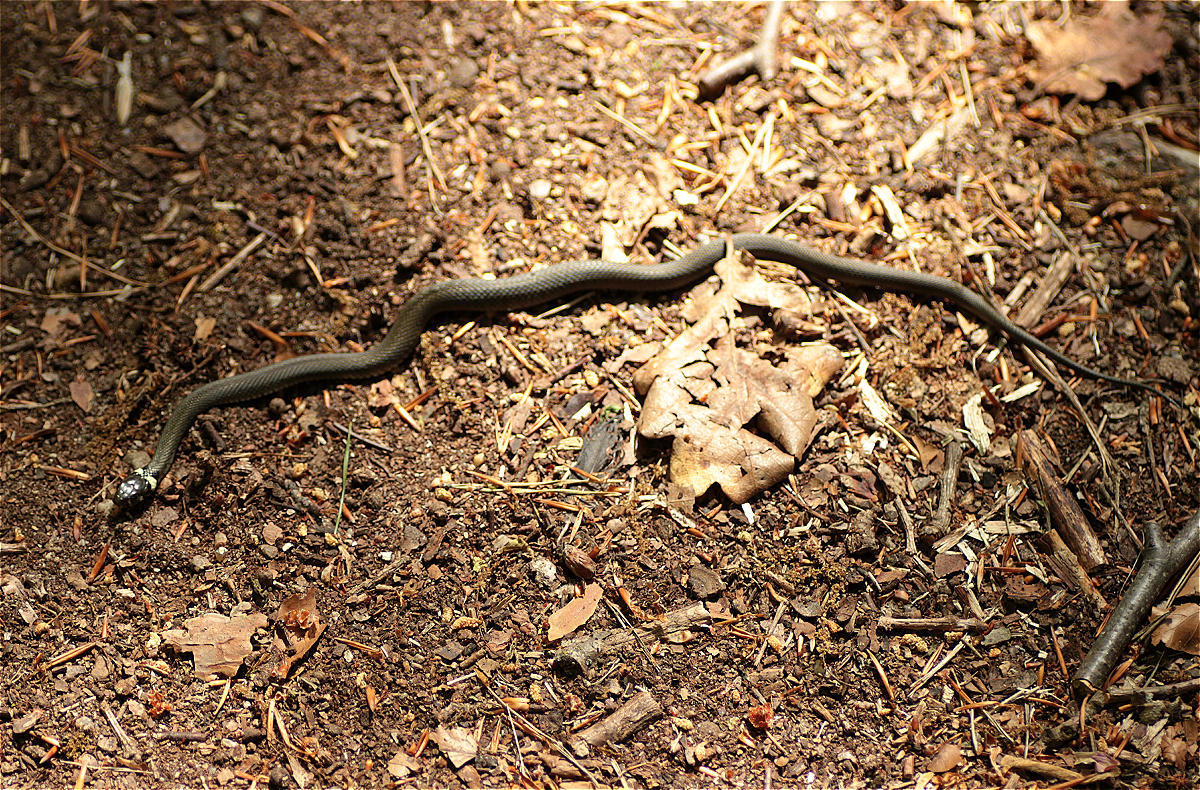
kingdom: Animalia
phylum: Chordata
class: Squamata
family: Colubridae
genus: Natrix
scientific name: Natrix natrix
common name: Grass snake
